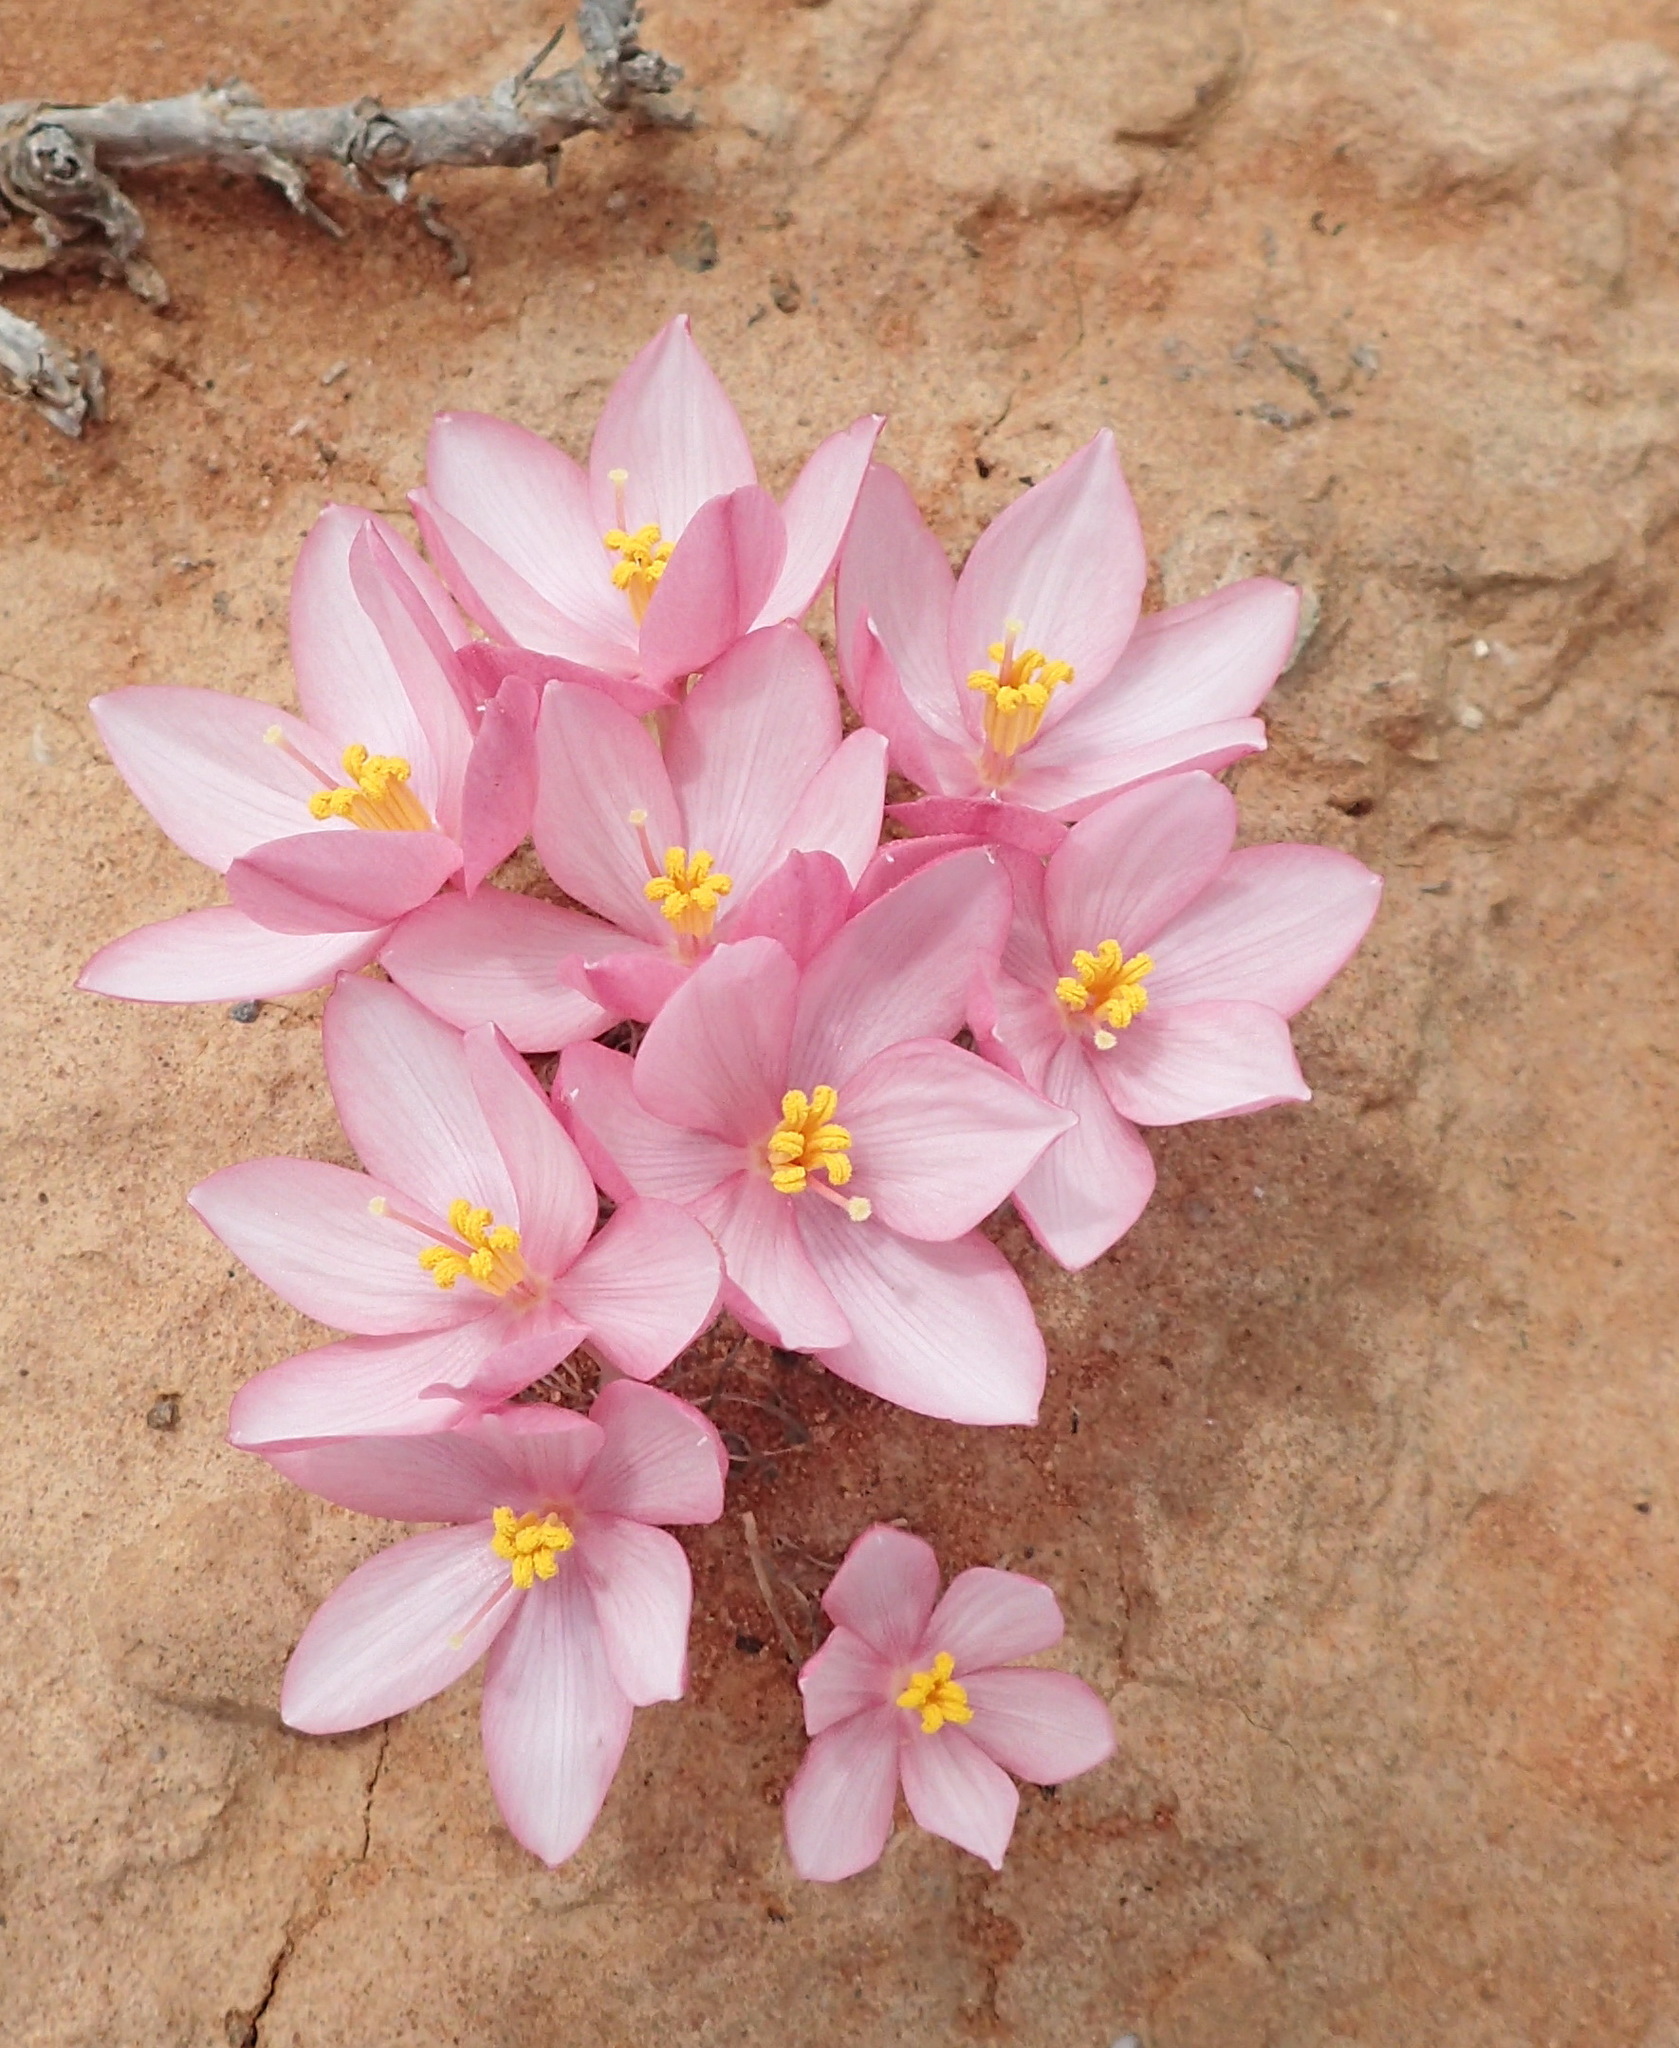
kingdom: Plantae
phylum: Tracheophyta
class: Liliopsida
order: Asparagales
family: Amaryllidaceae
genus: Gethyllis
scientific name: Gethyllis linearis
